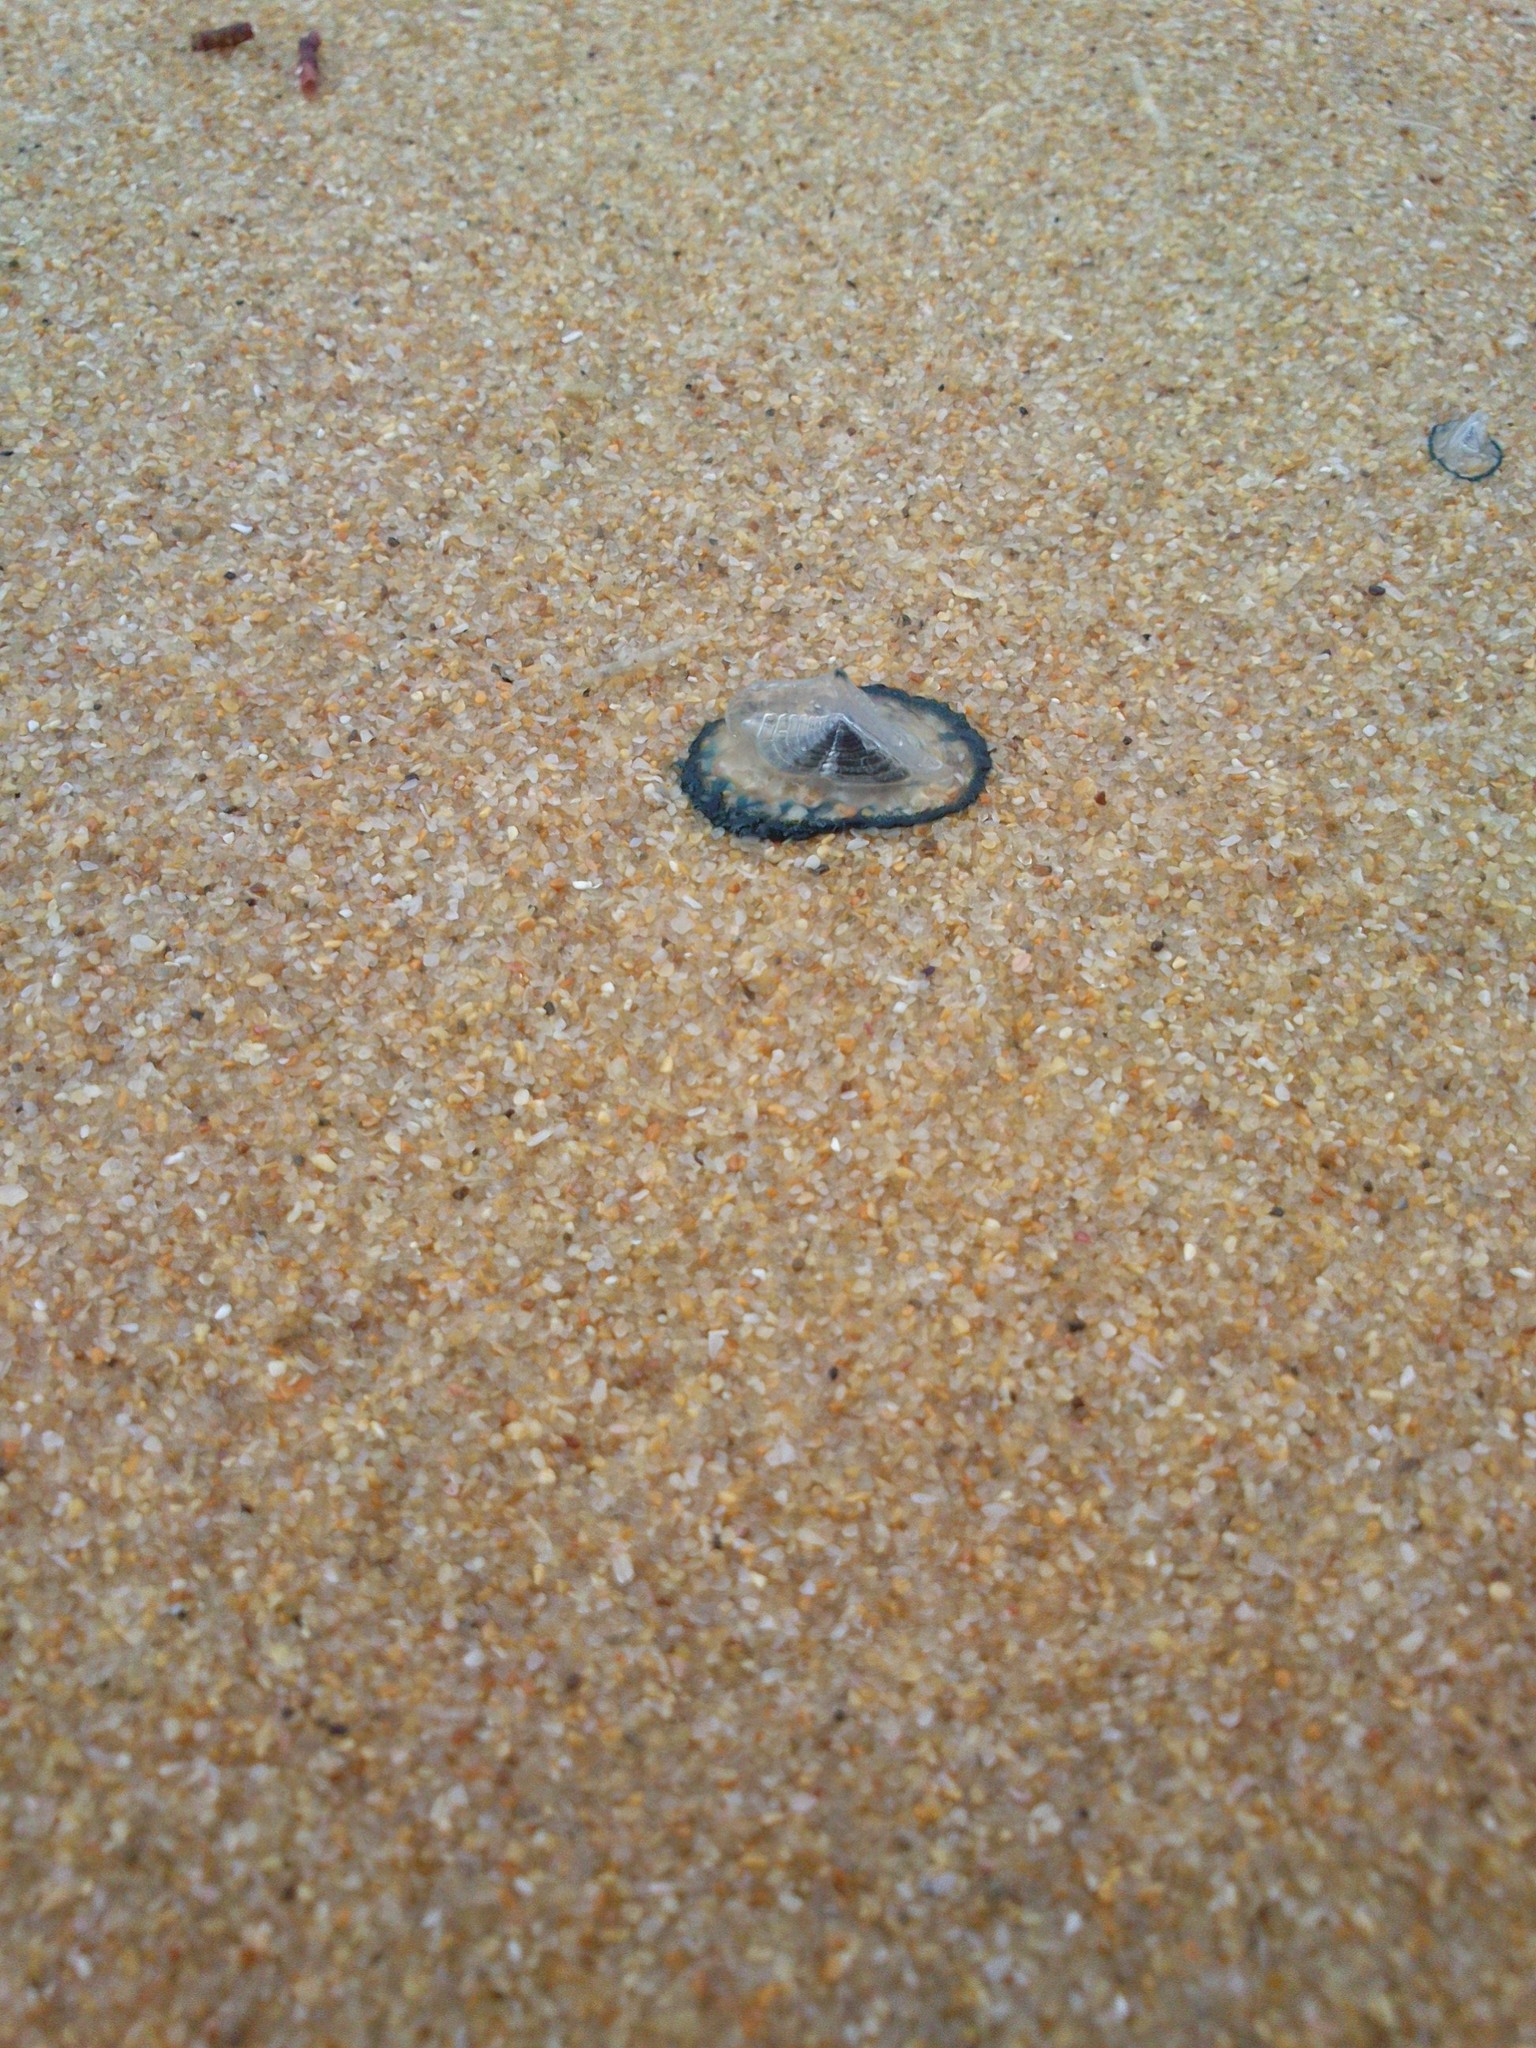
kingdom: Animalia
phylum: Cnidaria
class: Hydrozoa
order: Anthoathecata
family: Porpitidae
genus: Velella
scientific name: Velella velella
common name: By-the-wind-sailor
